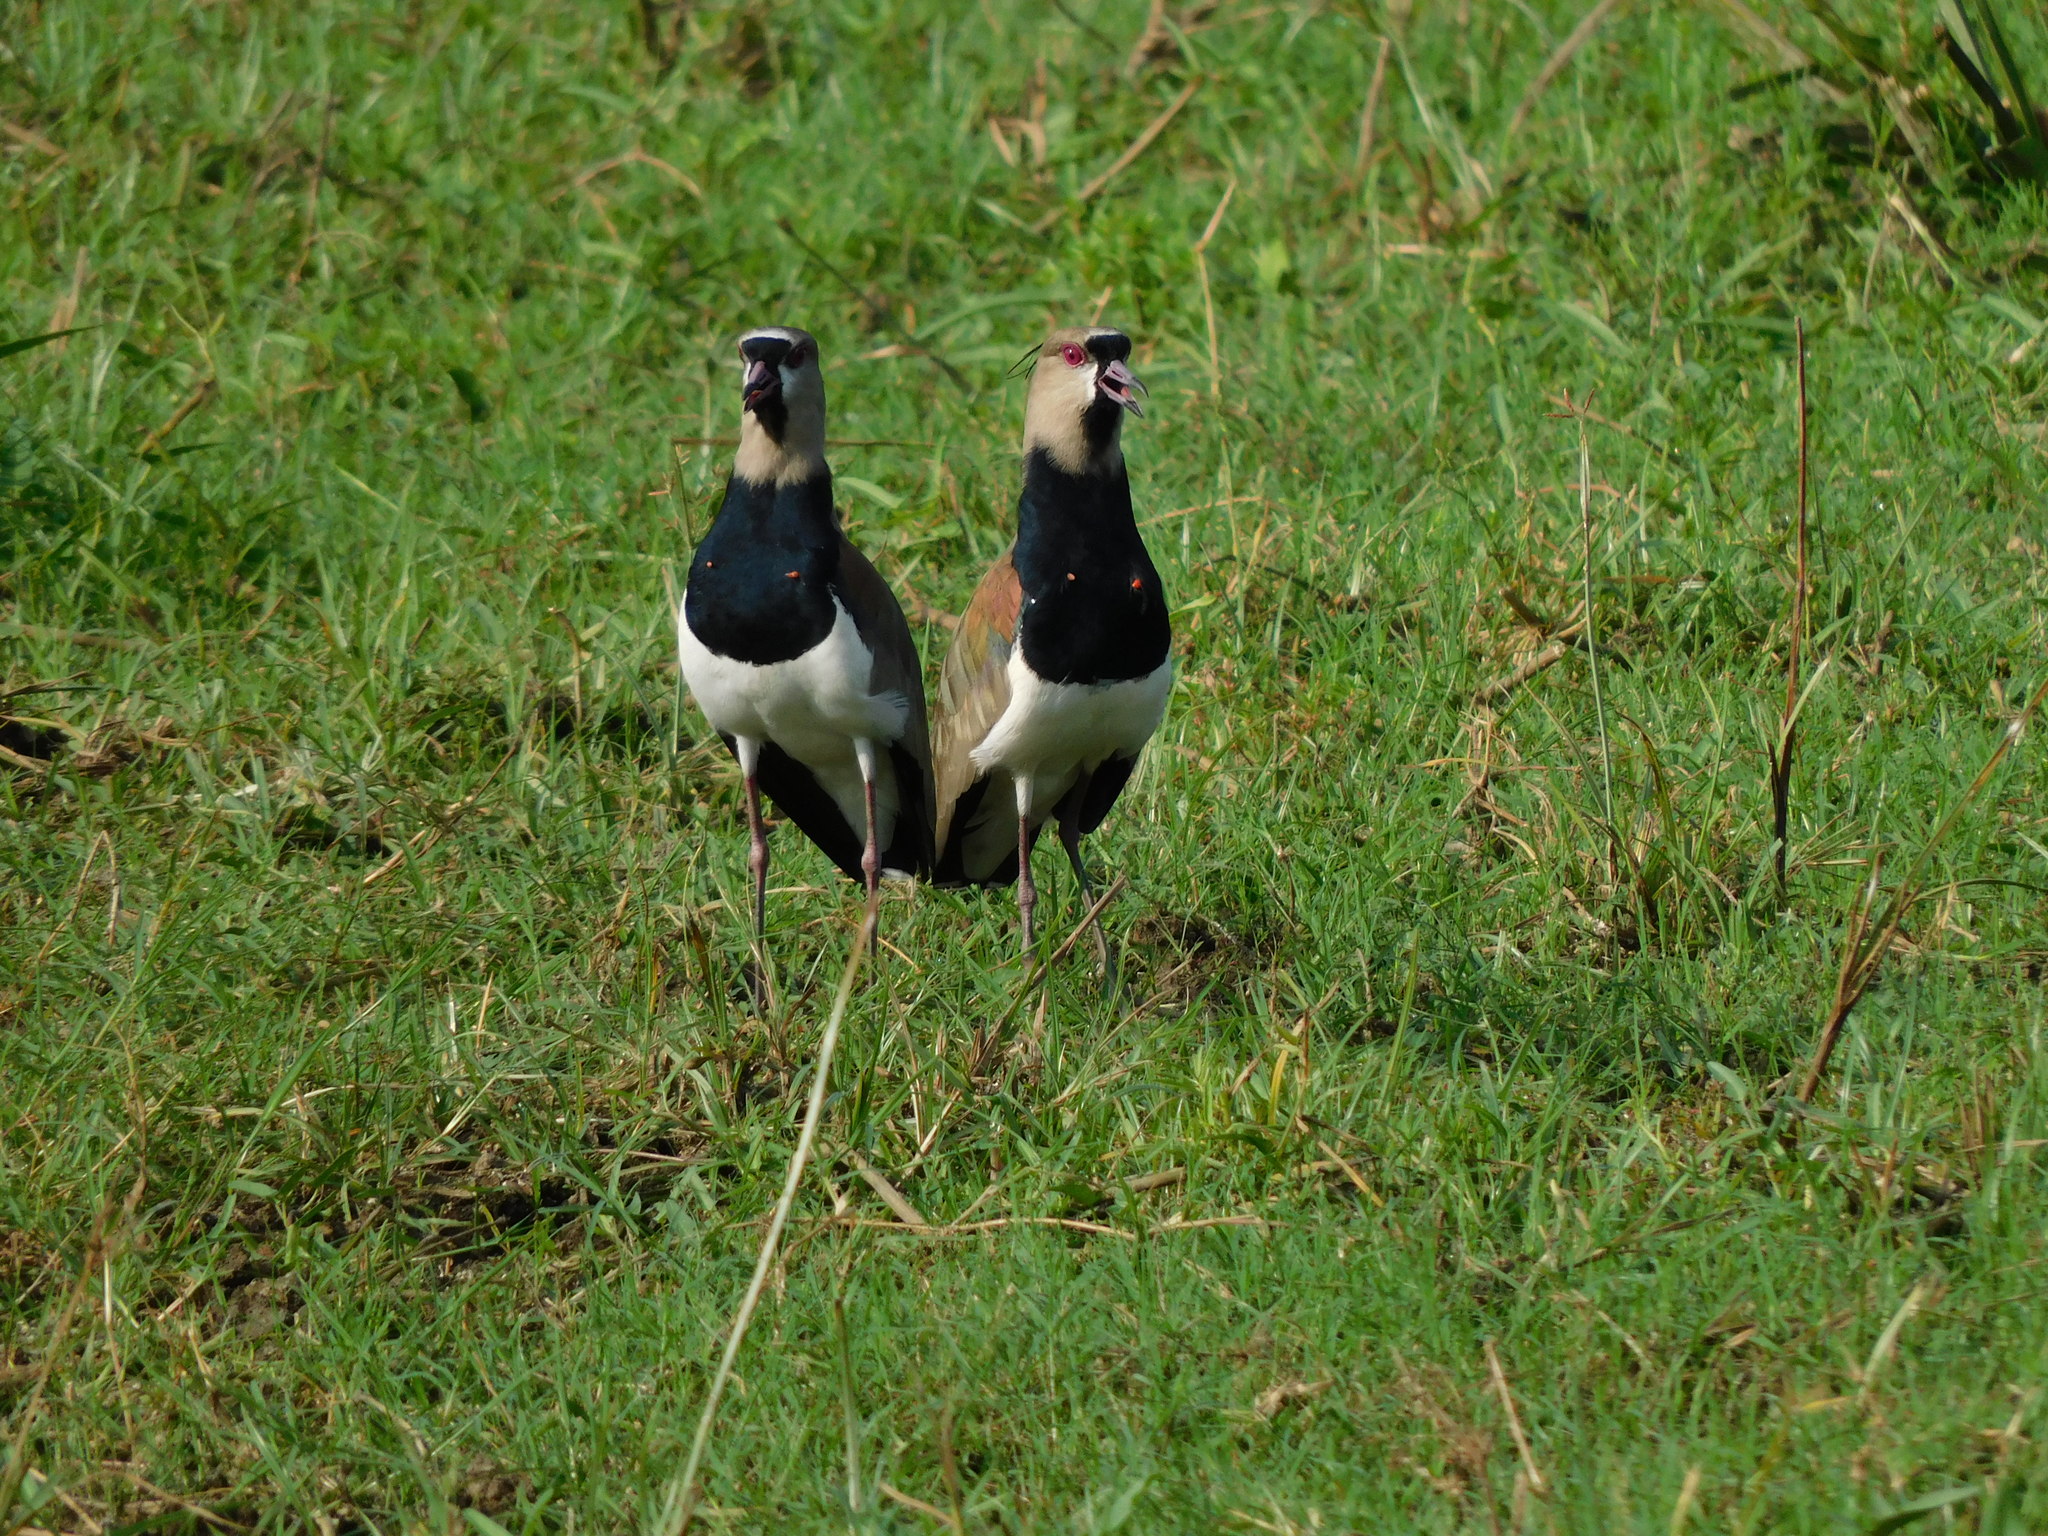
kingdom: Animalia
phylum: Chordata
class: Aves
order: Charadriiformes
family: Charadriidae
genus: Vanellus
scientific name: Vanellus chilensis
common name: Southern lapwing
